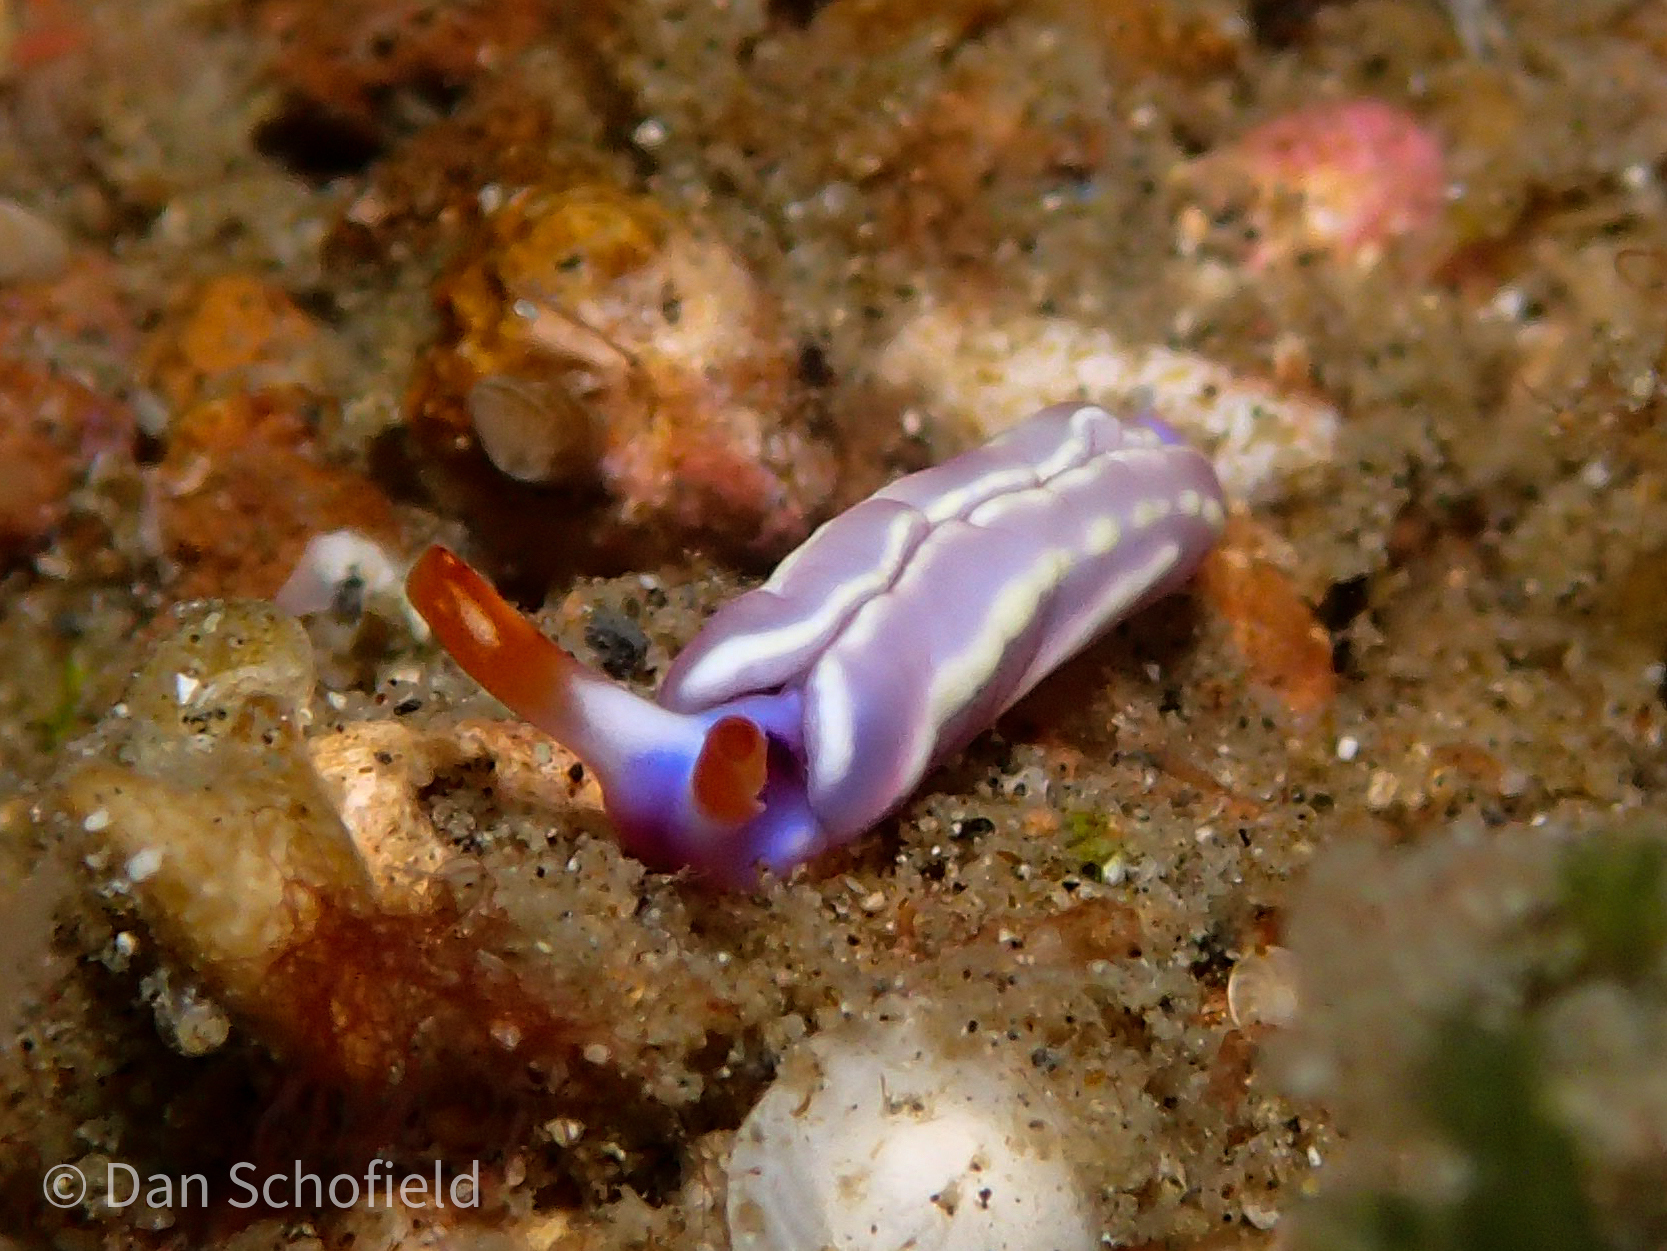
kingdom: Animalia
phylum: Mollusca
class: Gastropoda
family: Plakobranchidae
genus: Thuridilla
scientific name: Thuridilla albopustulosa
